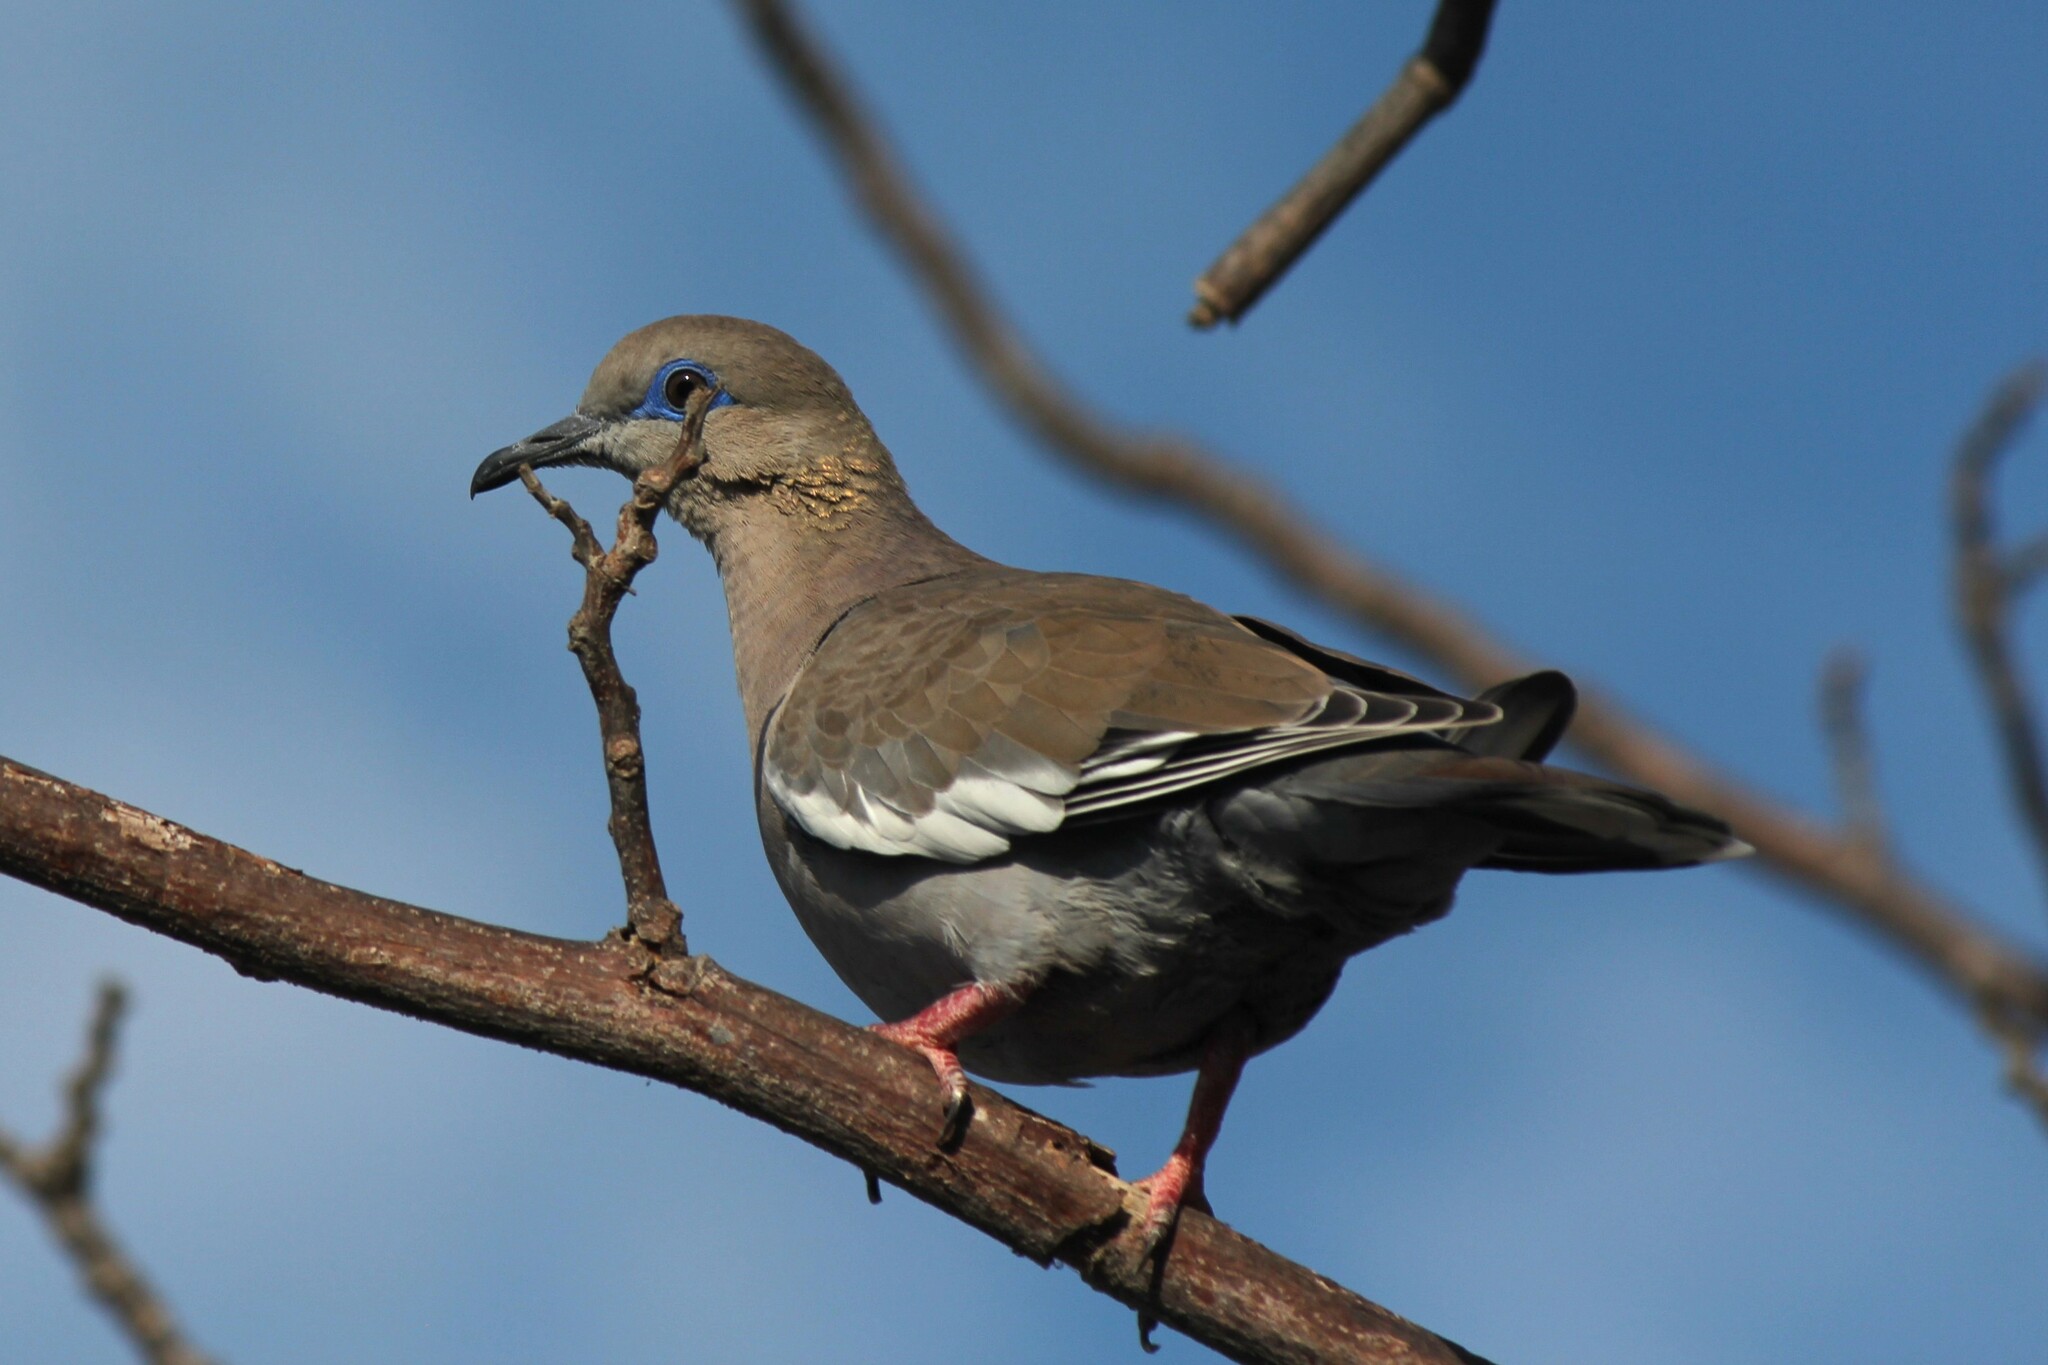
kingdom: Animalia
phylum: Chordata
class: Aves
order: Columbiformes
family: Columbidae
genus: Zenaida
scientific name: Zenaida meloda
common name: West peruvian dove
